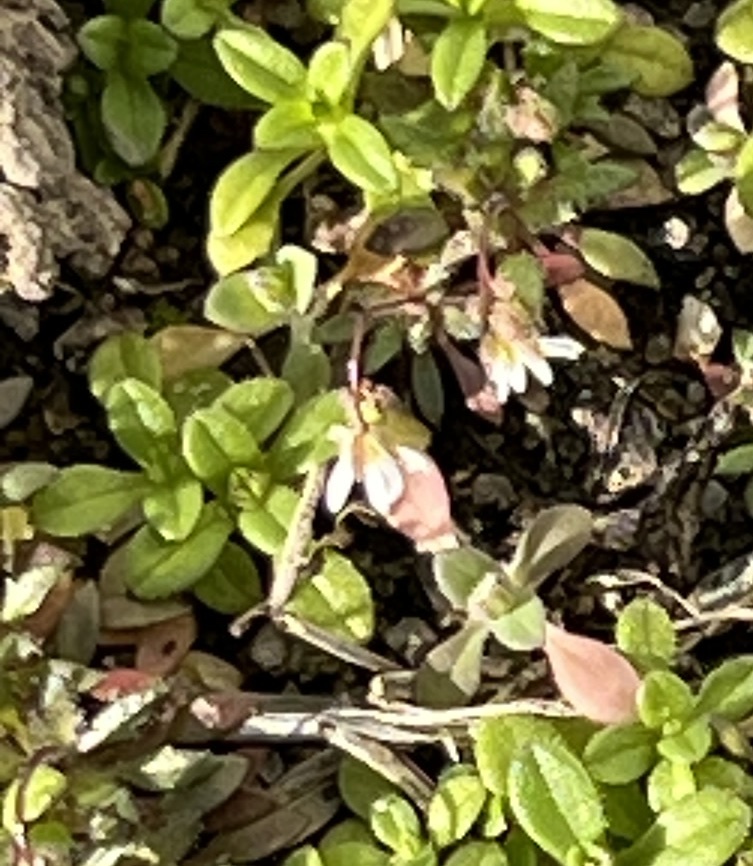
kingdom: Plantae
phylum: Tracheophyta
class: Magnoliopsida
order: Brassicales
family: Brassicaceae
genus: Draba
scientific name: Draba verna
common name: Spring draba
